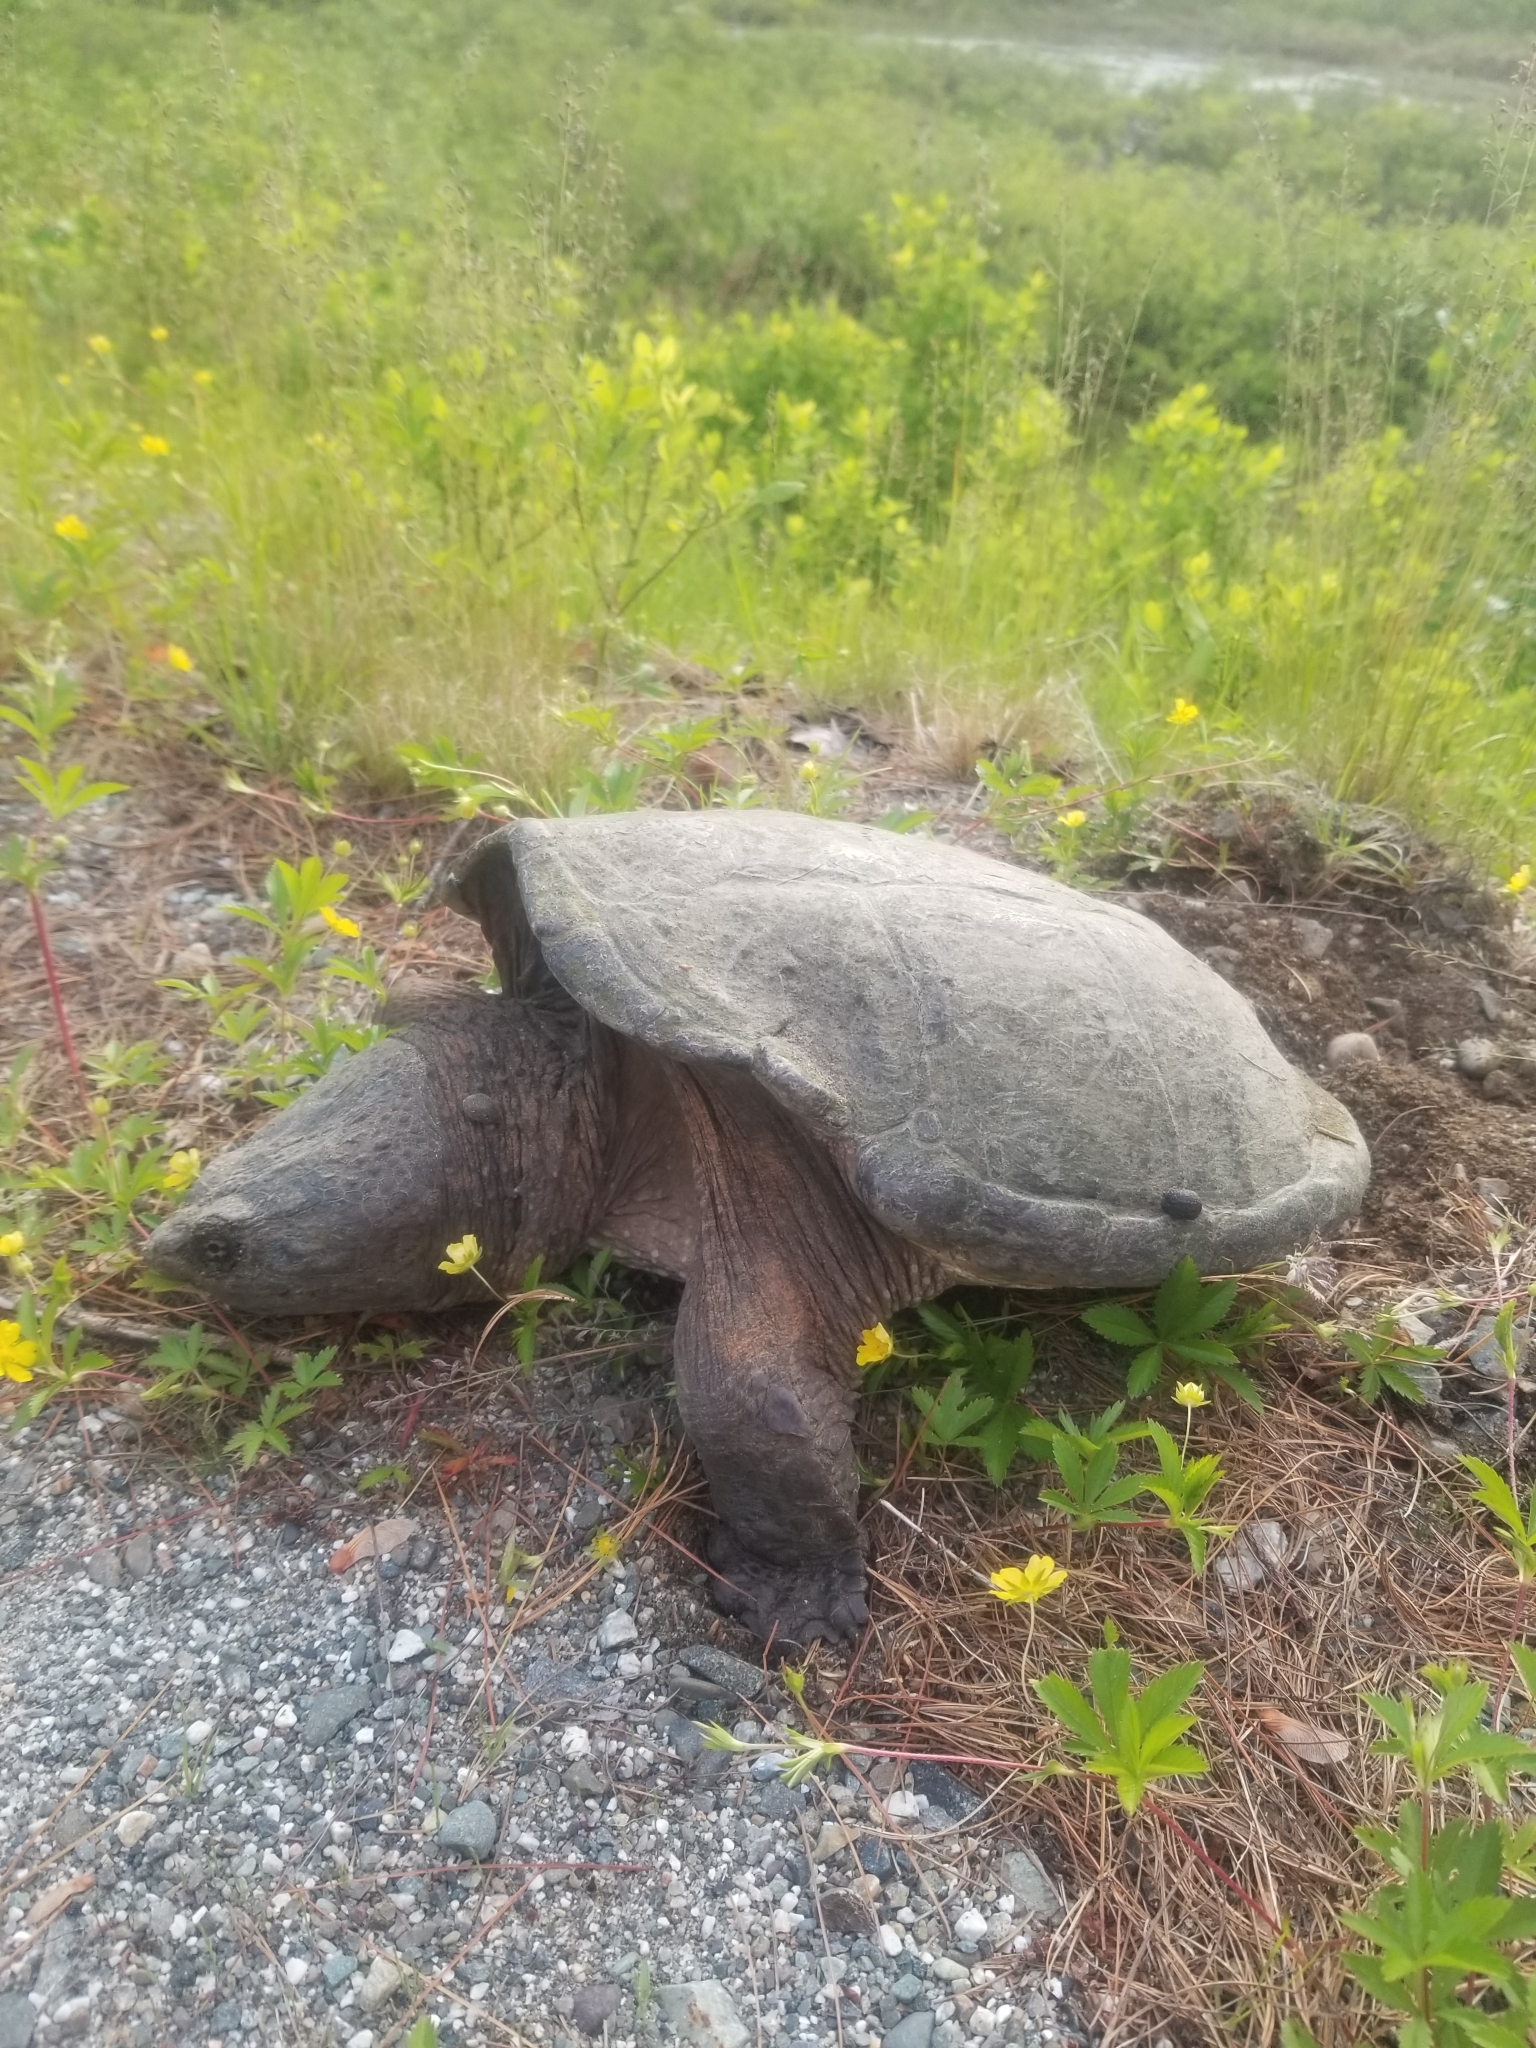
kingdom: Animalia
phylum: Chordata
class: Testudines
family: Chelydridae
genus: Chelydra
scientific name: Chelydra serpentina
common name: Common snapping turtle
